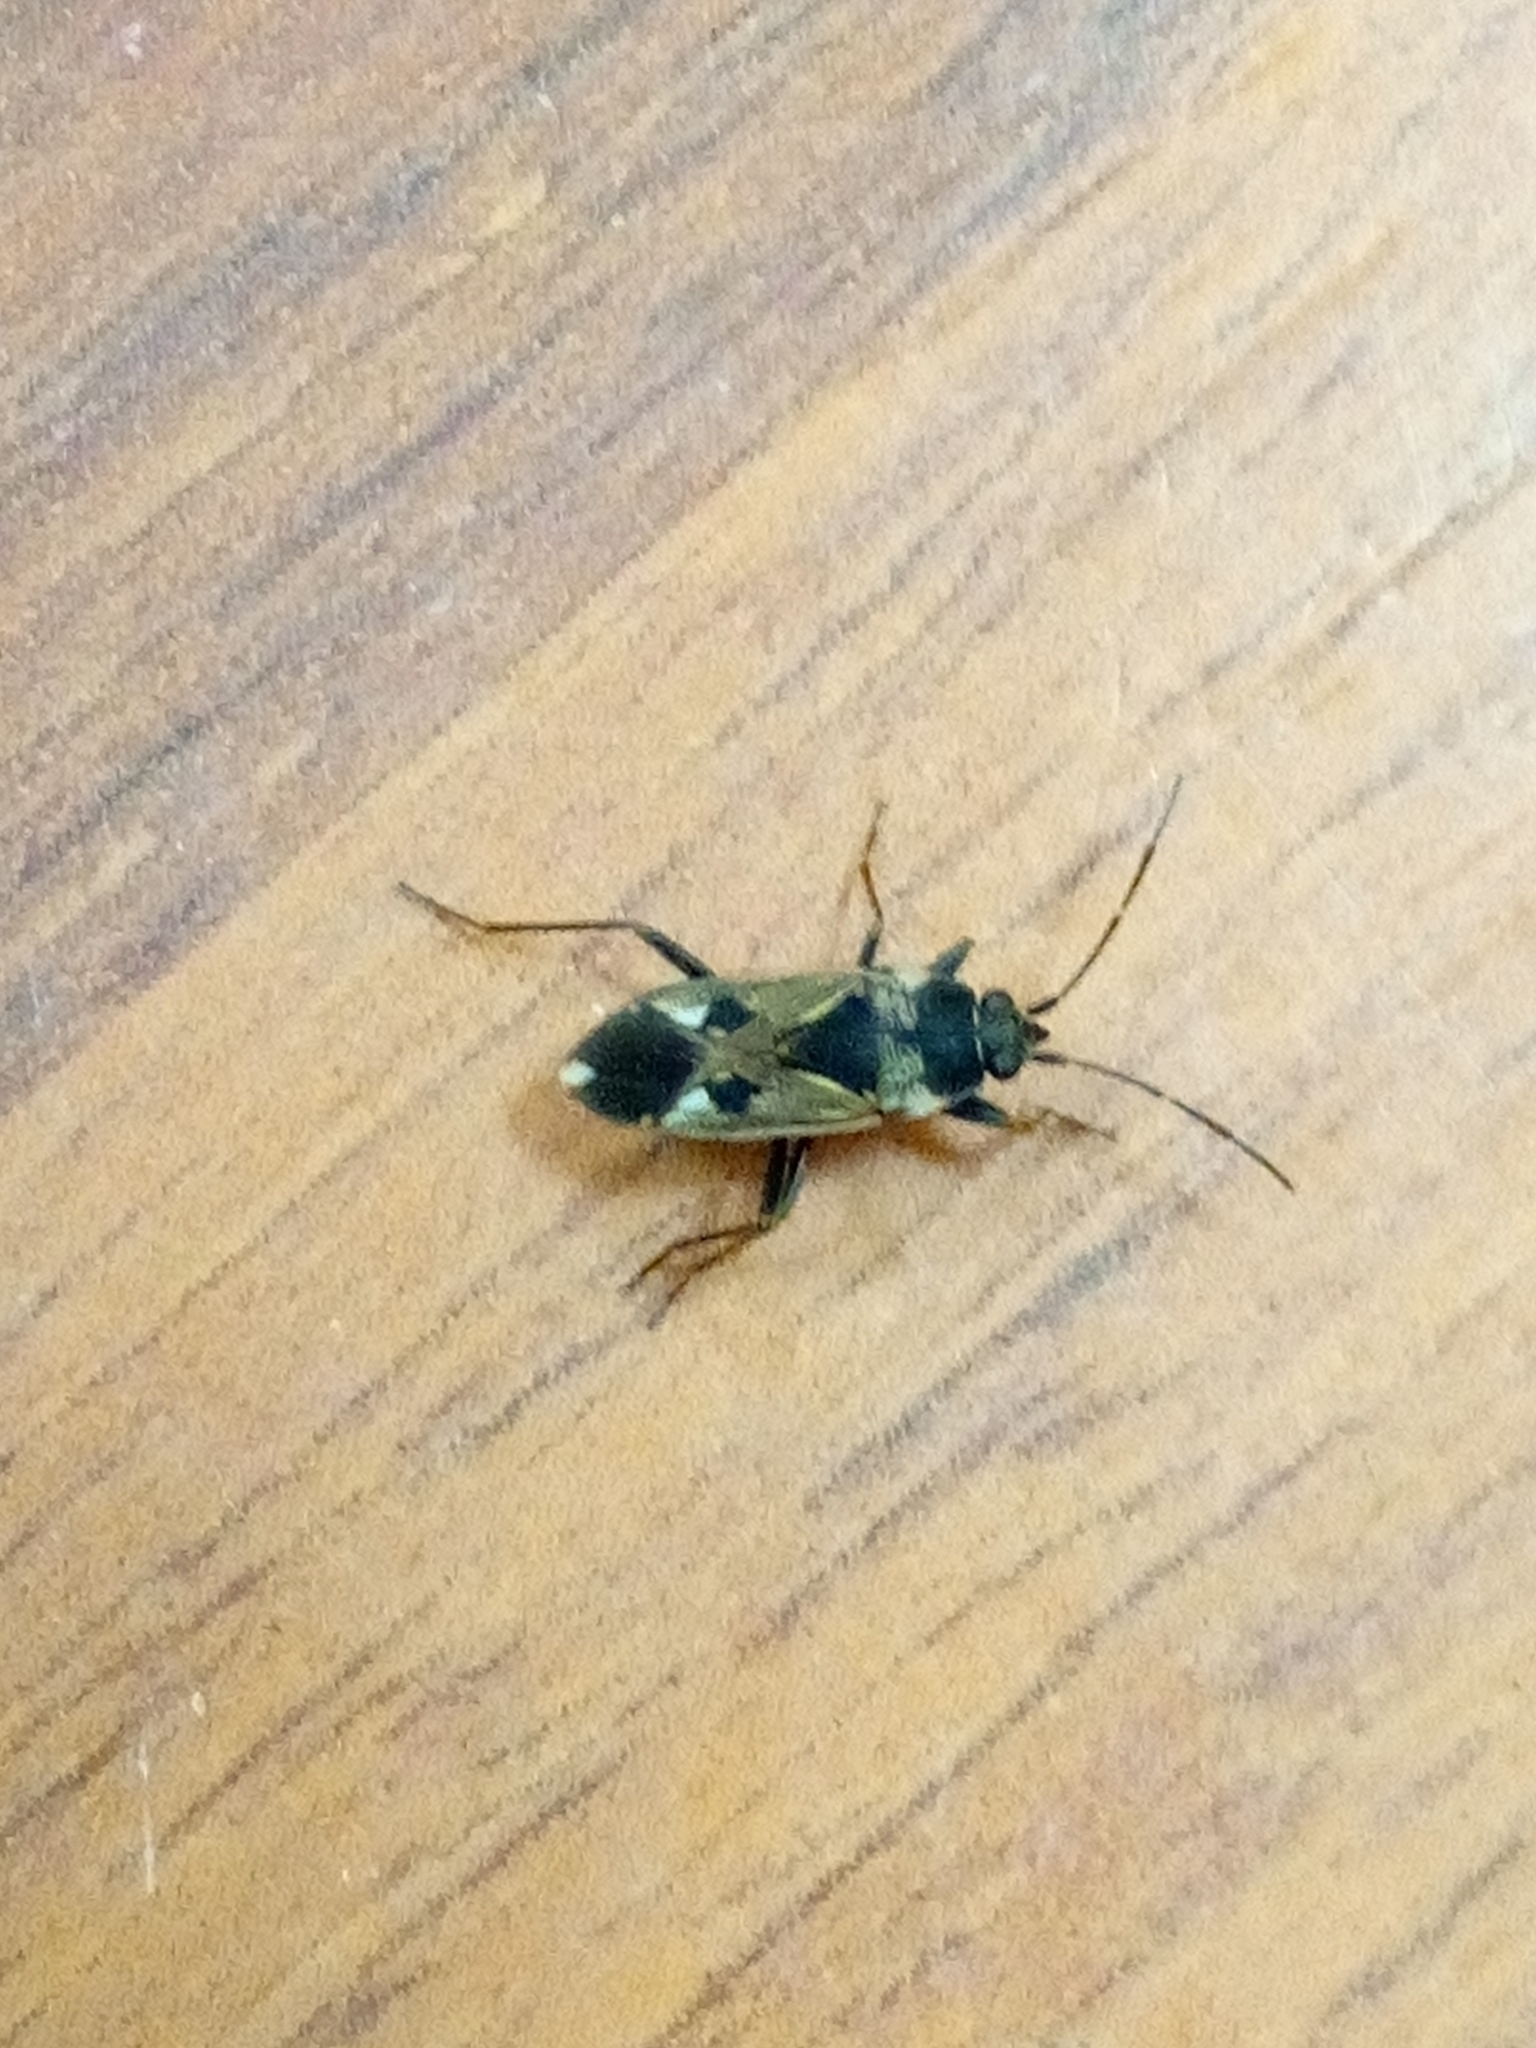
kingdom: Animalia
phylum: Arthropoda
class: Insecta
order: Hemiptera
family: Rhyparochromidae
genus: Rhyparochromus
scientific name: Rhyparochromus vulgaris
